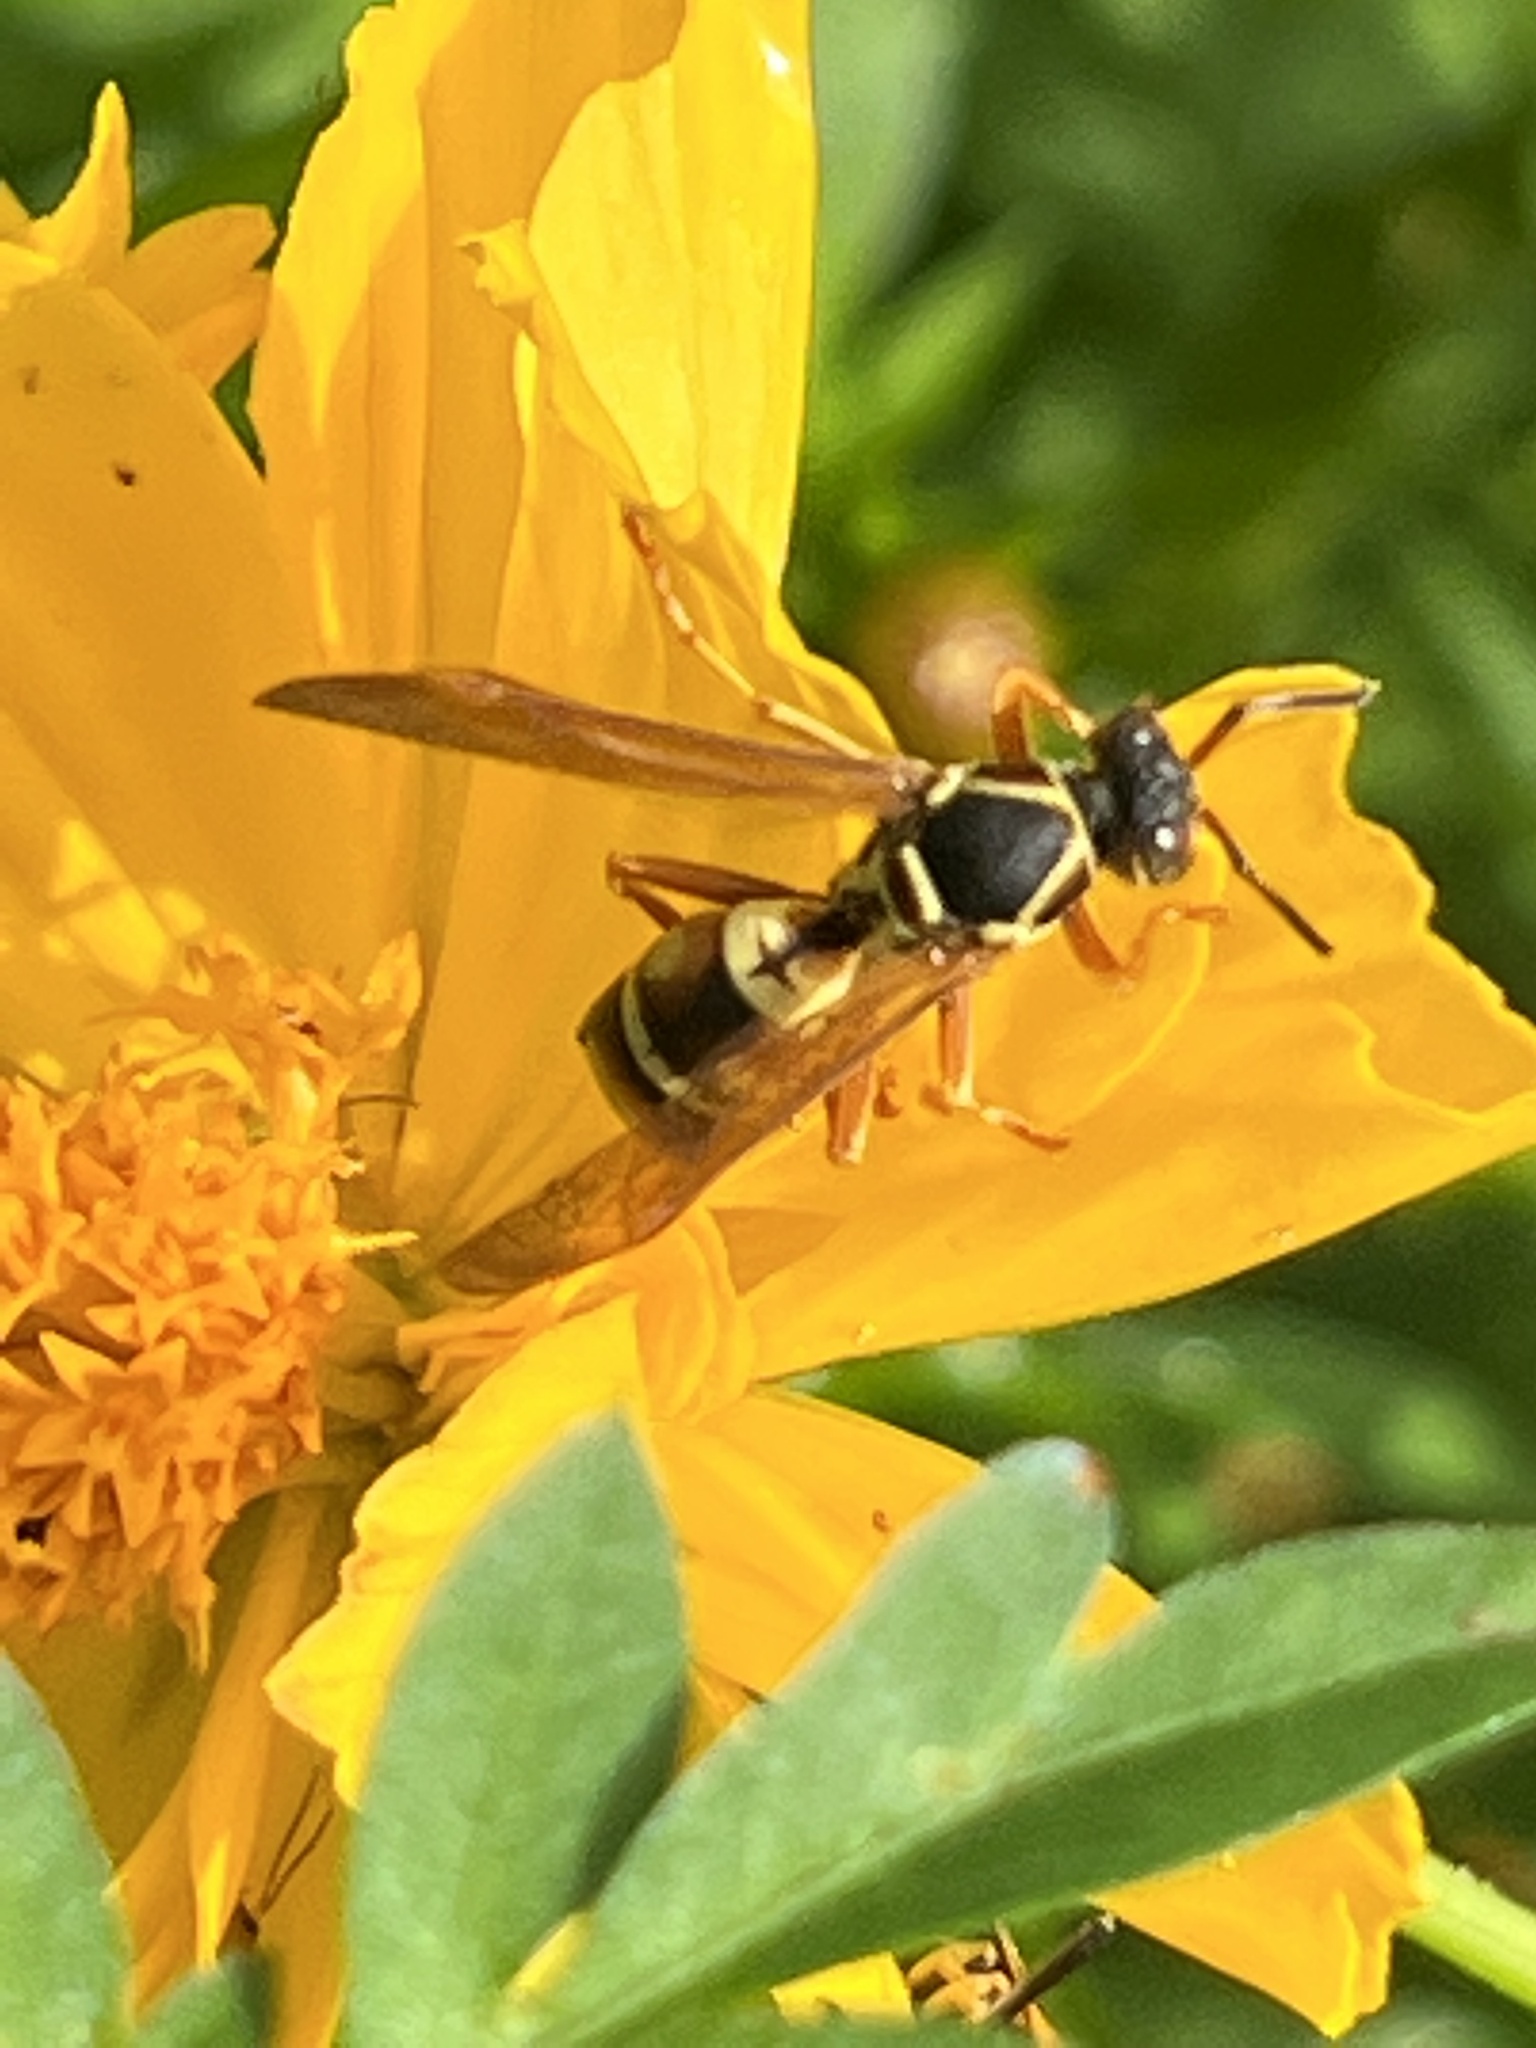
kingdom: Animalia
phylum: Arthropoda
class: Insecta
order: Hymenoptera
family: Eumenidae
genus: Polistes
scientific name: Polistes fuscatus
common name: Dark paper wasp
